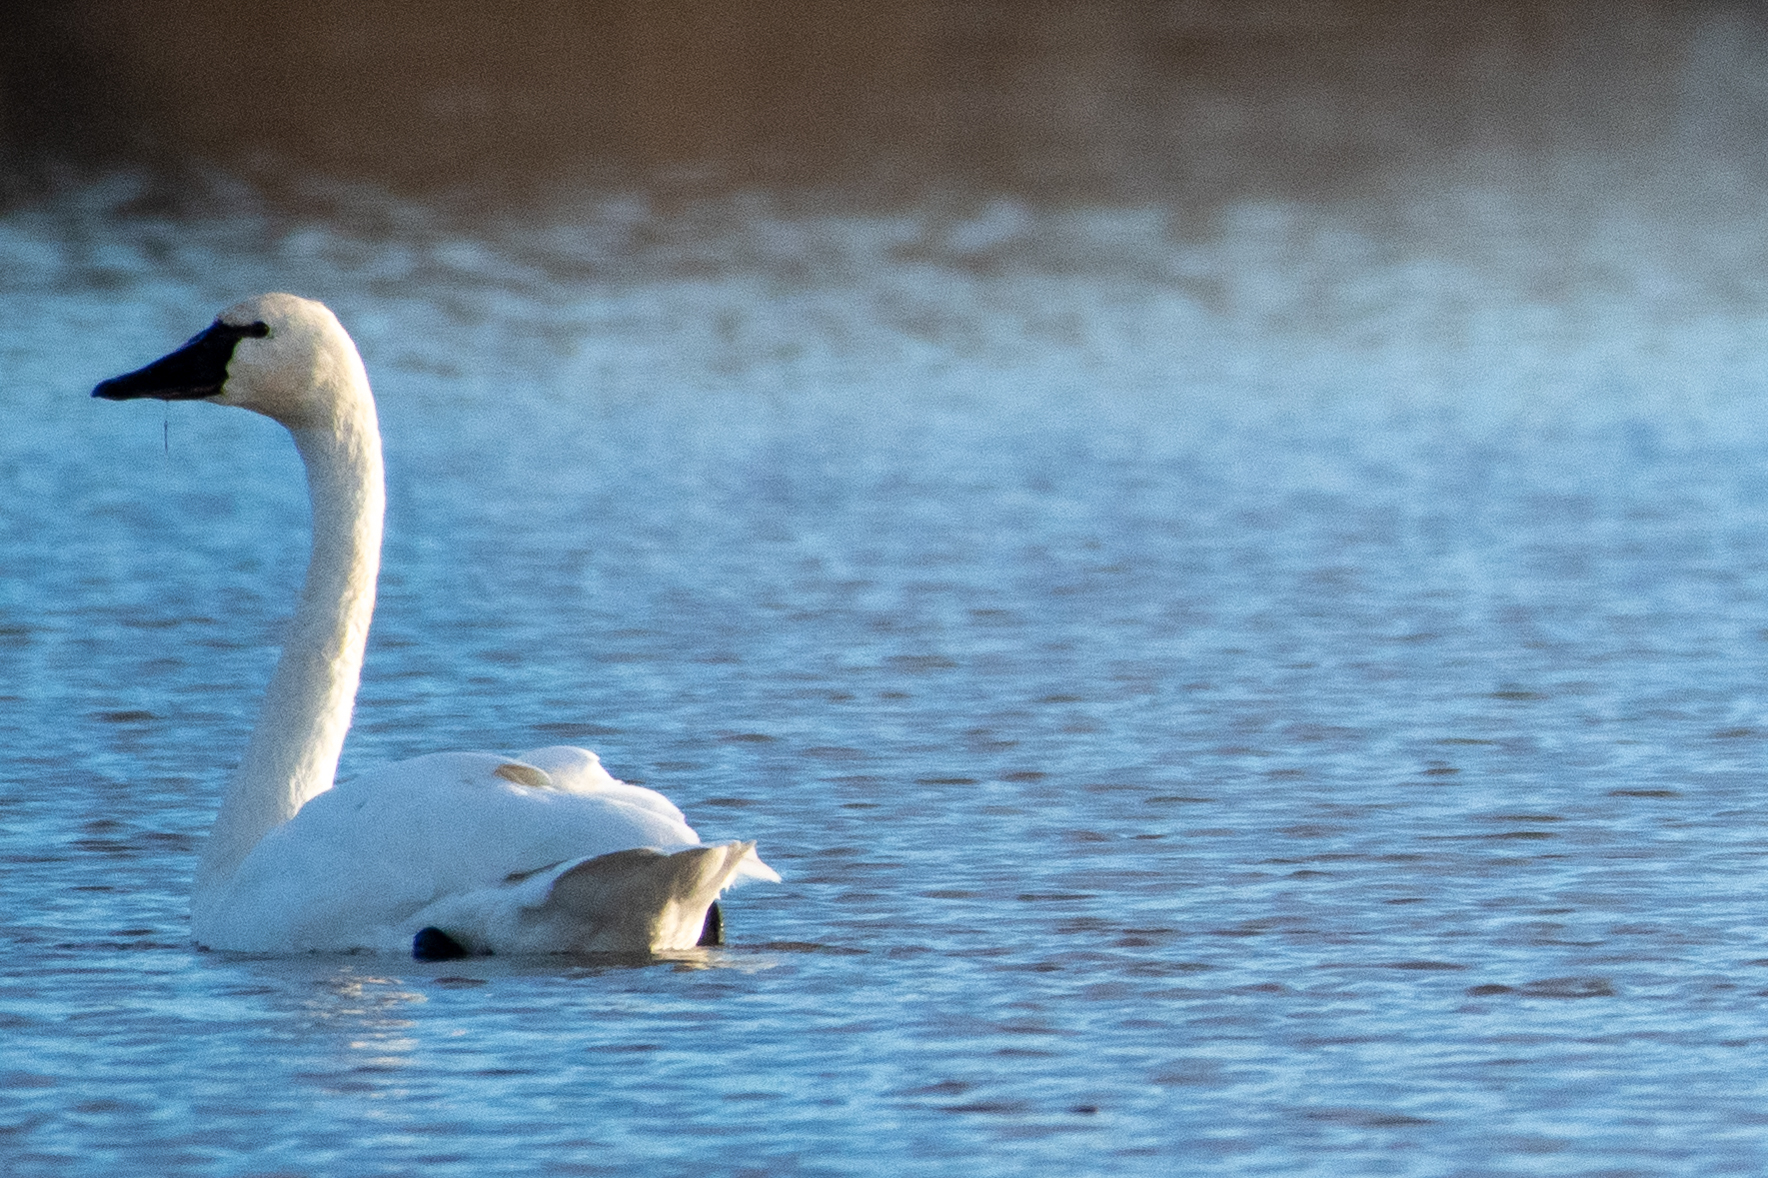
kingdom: Animalia
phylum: Chordata
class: Aves
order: Anseriformes
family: Anatidae
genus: Cygnus
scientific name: Cygnus columbianus
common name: Tundra swan
